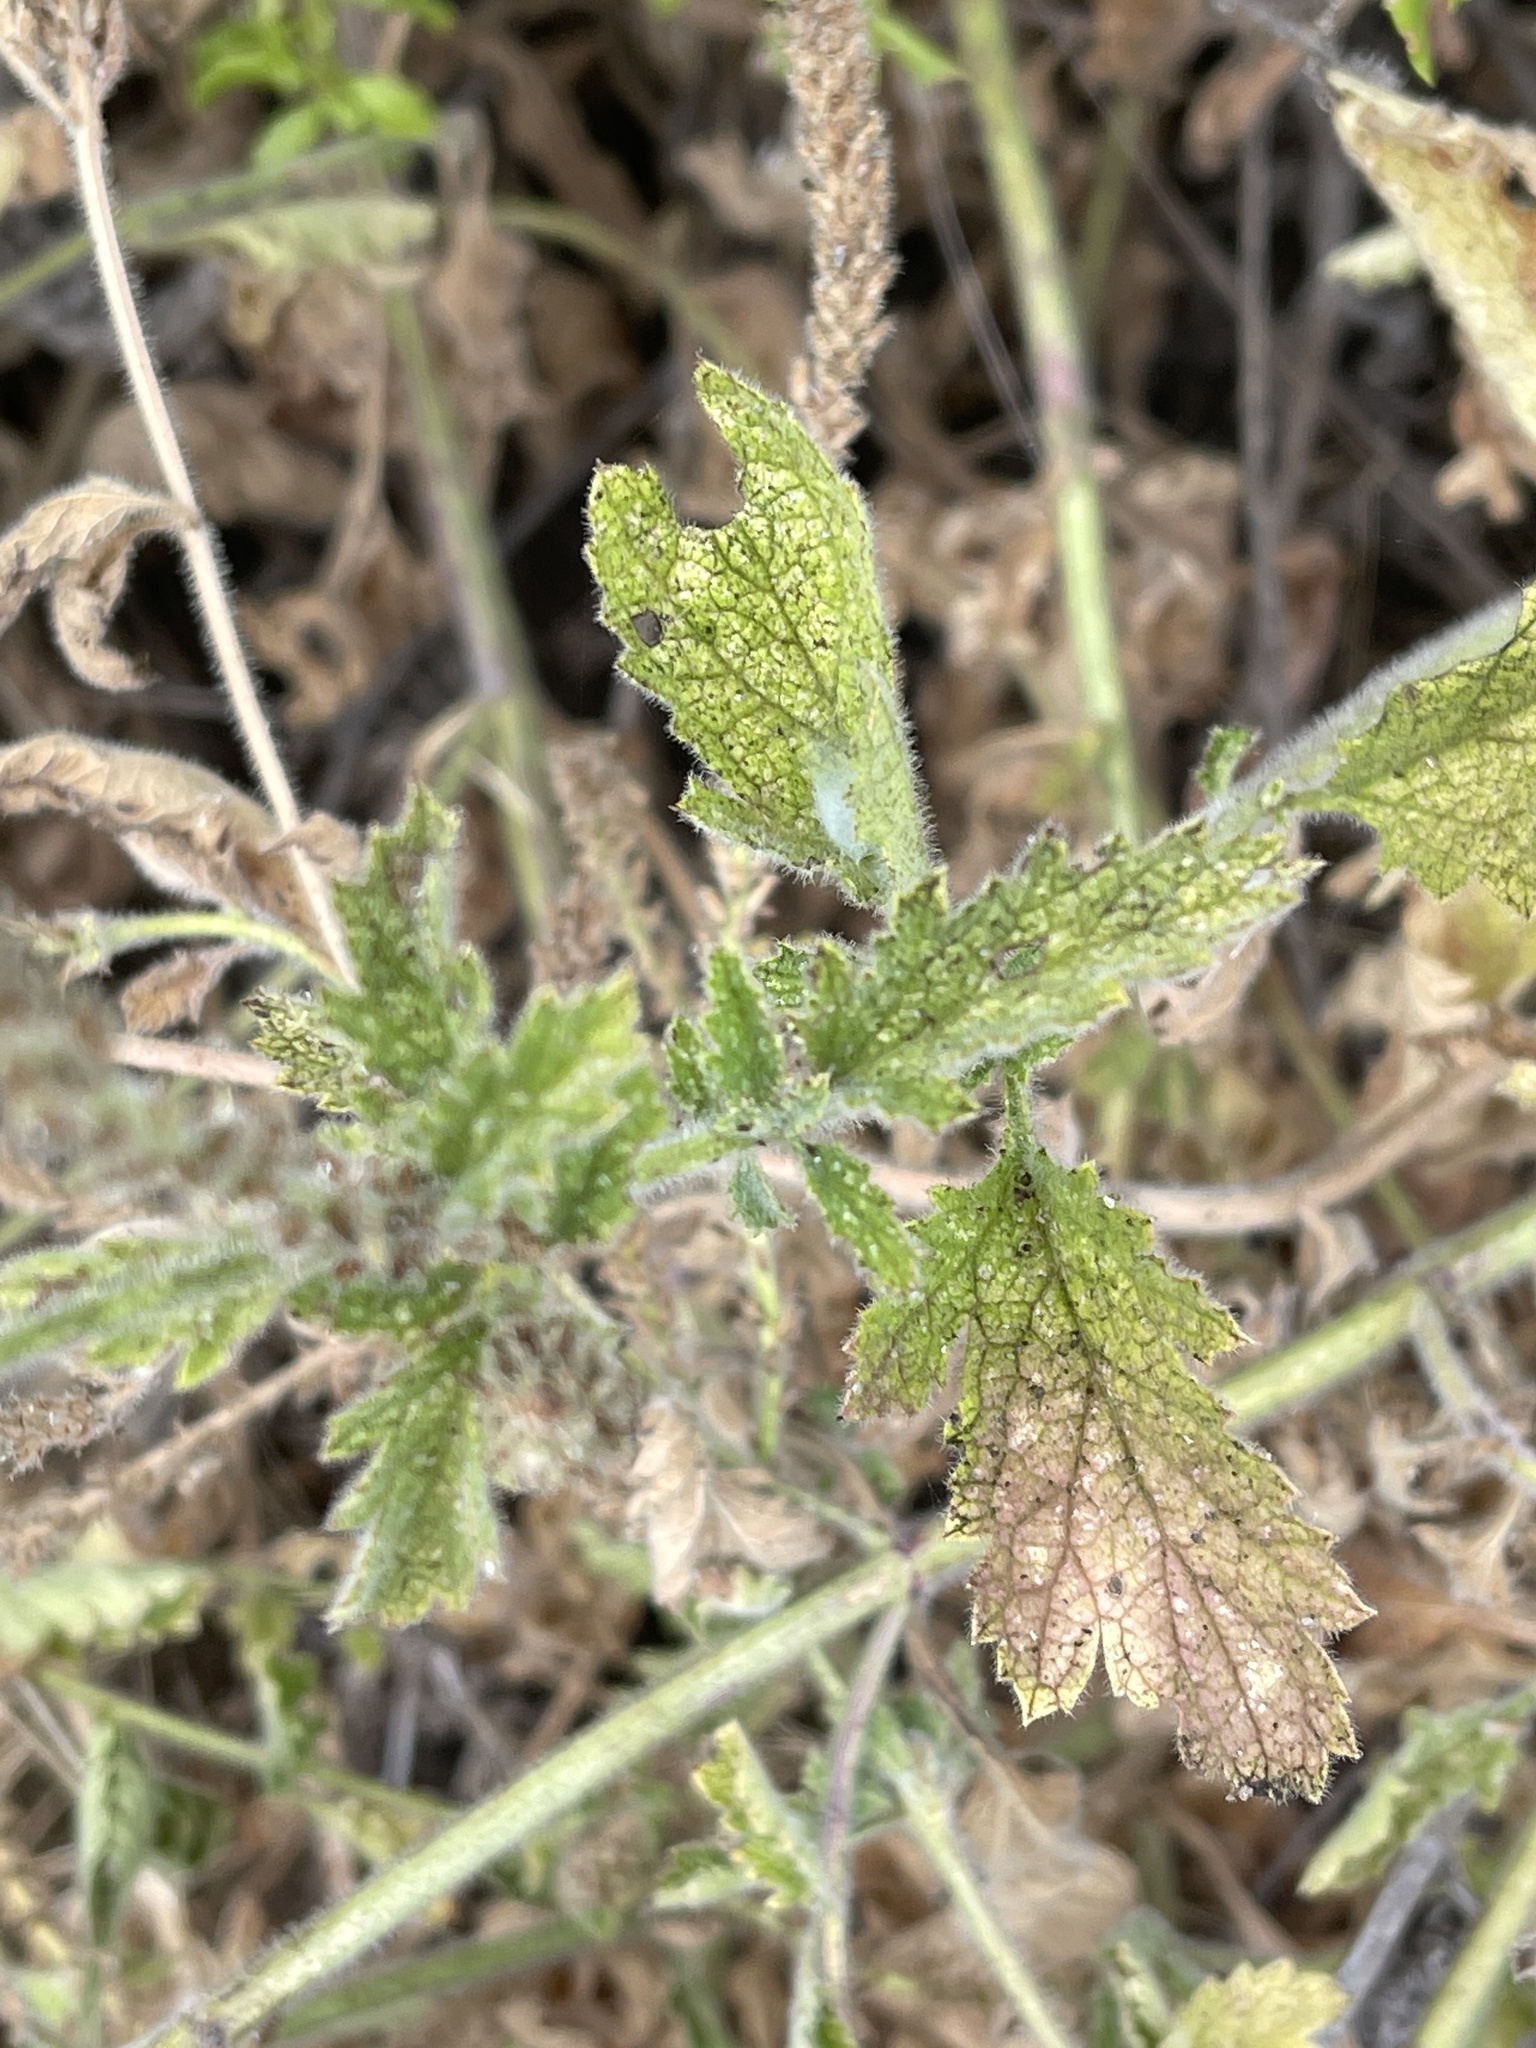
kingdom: Plantae
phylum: Tracheophyta
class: Magnoliopsida
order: Lamiales
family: Verbenaceae
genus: Verbena
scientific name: Verbena lasiostachys
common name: Vervain
